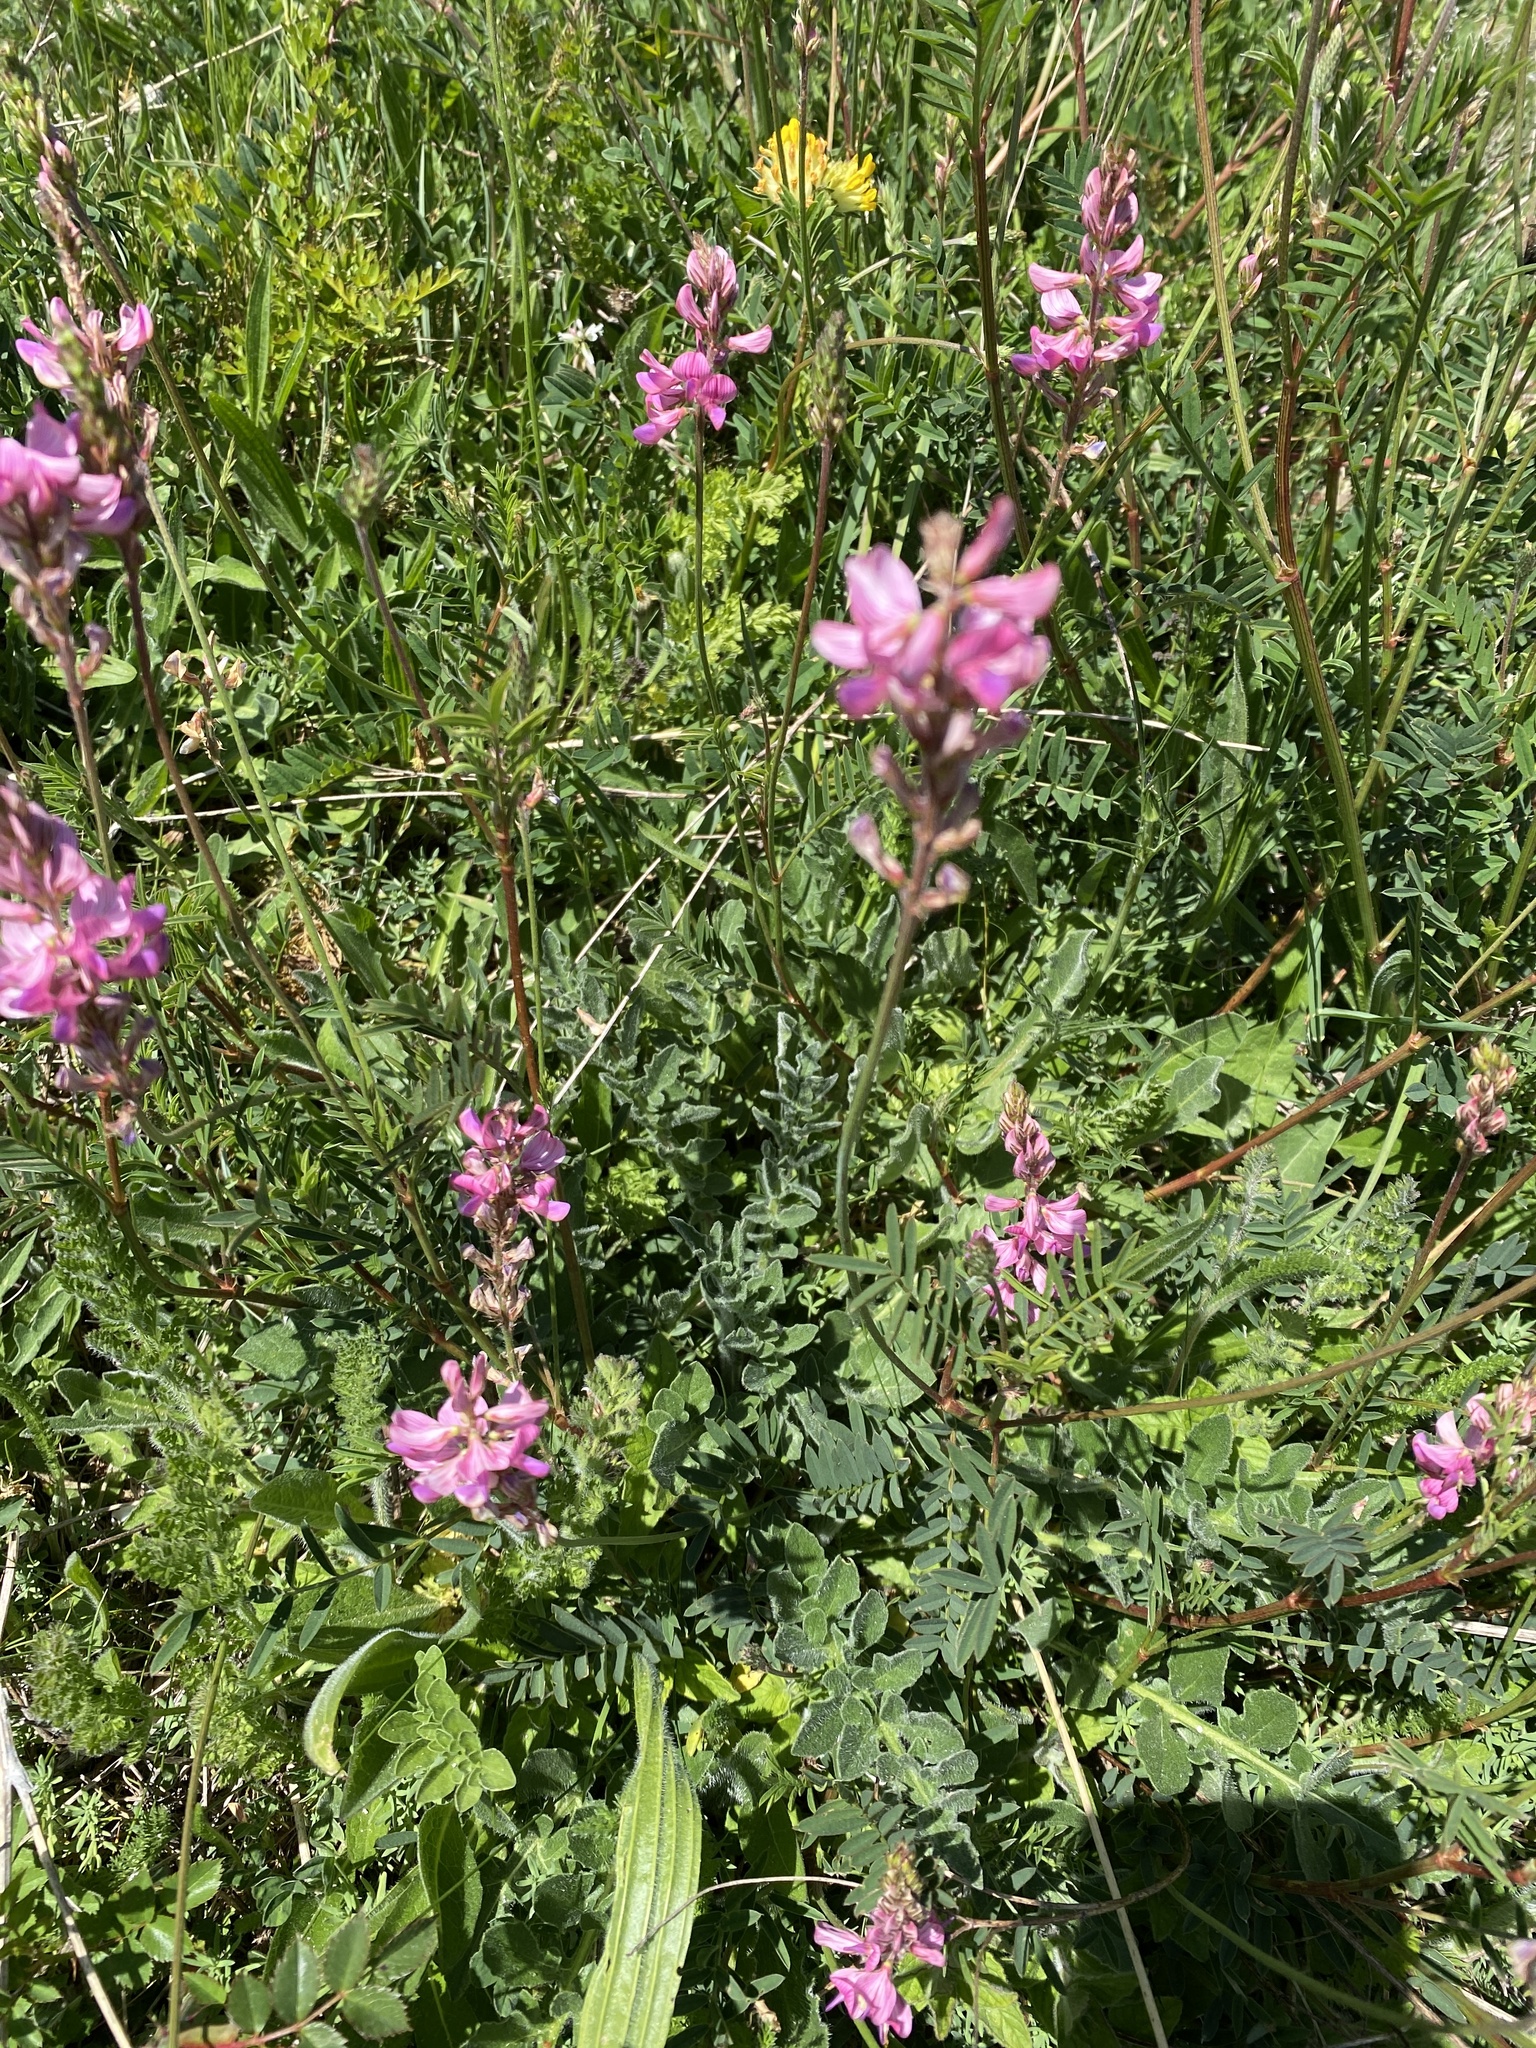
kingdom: Plantae
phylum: Tracheophyta
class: Magnoliopsida
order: Fabales
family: Fabaceae
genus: Onobrychis
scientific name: Onobrychis viciifolia
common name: Sainfoin
